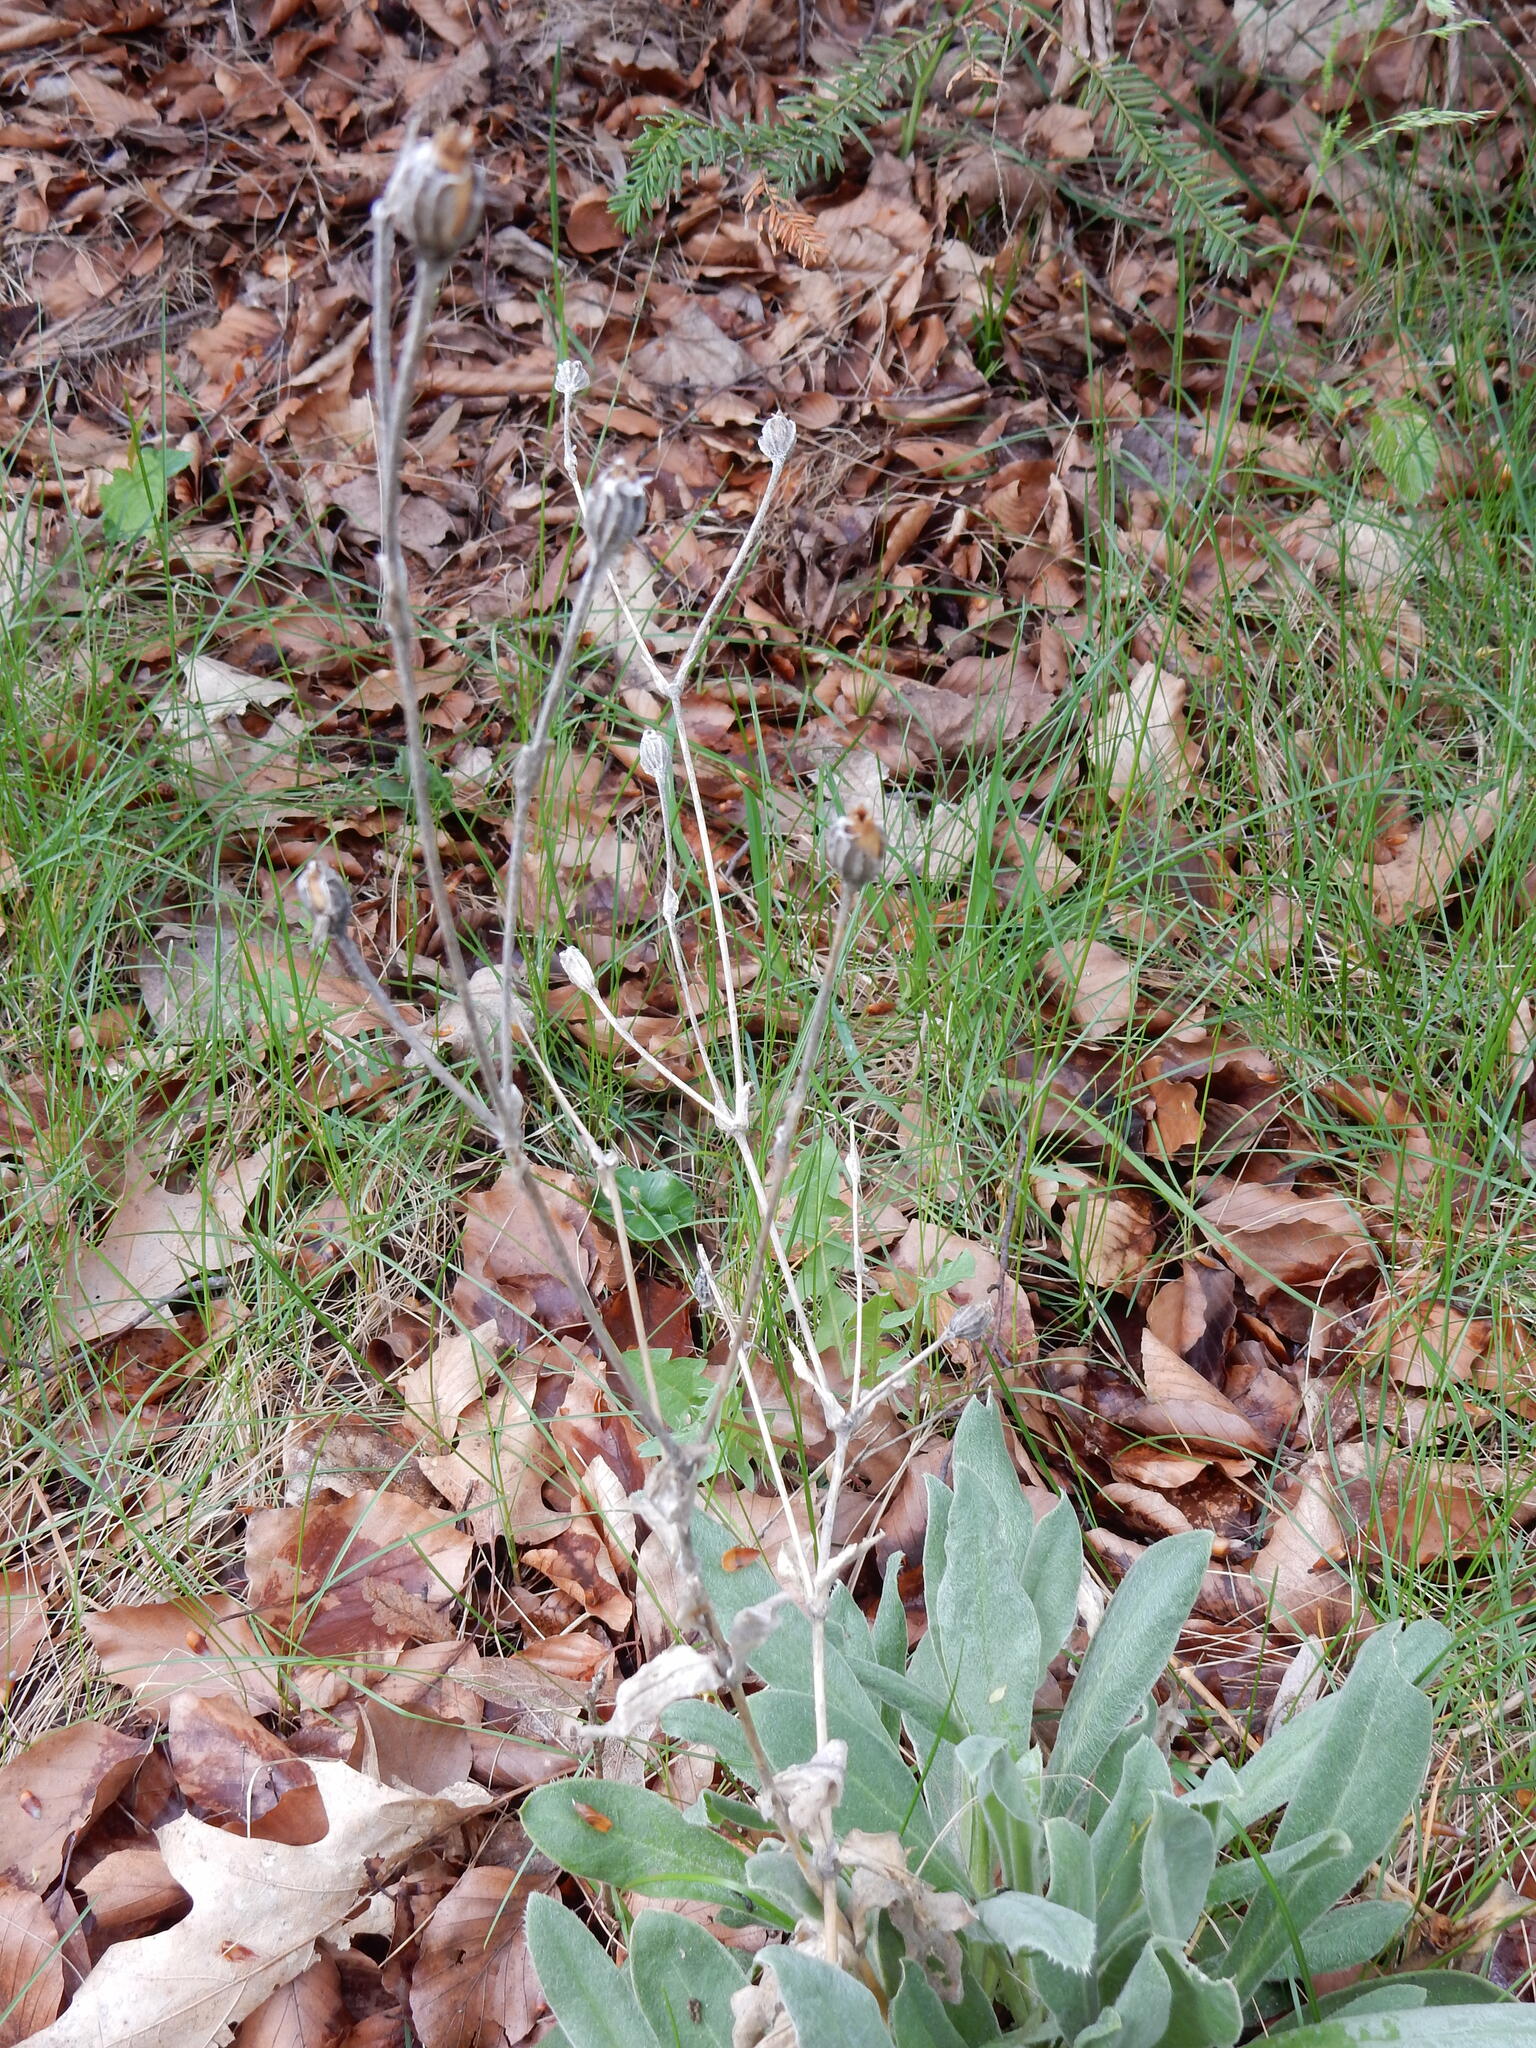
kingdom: Plantae
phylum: Tracheophyta
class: Magnoliopsida
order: Caryophyllales
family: Caryophyllaceae
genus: Silene
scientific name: Silene coronaria
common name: Rose campion
